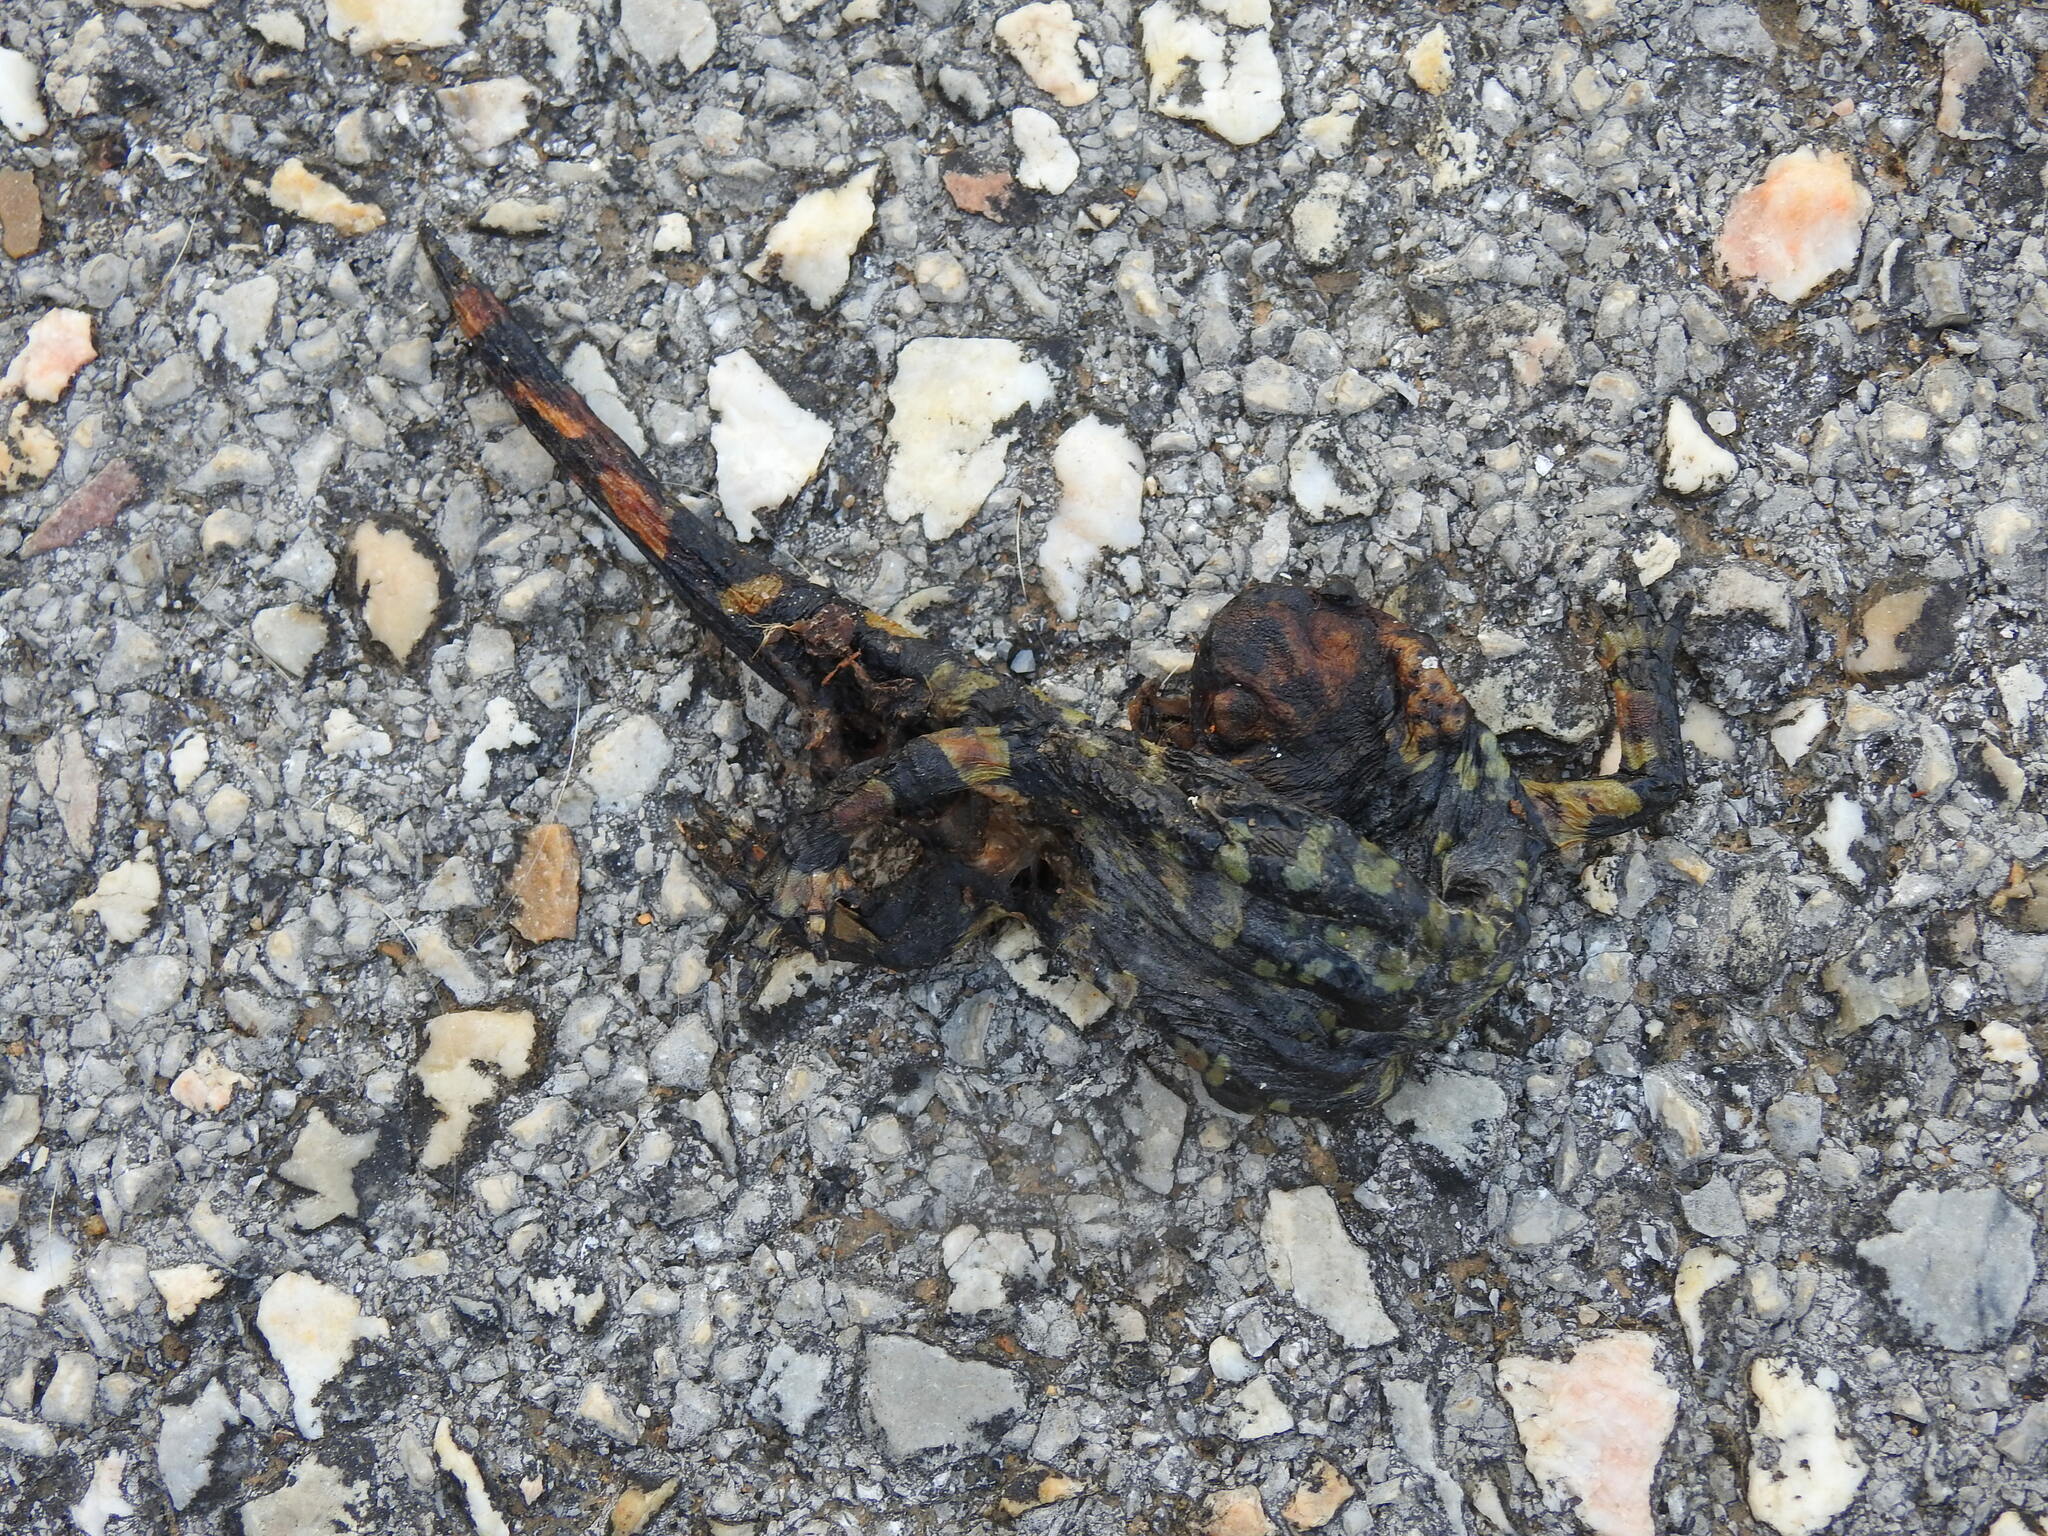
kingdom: Animalia
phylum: Chordata
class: Amphibia
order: Caudata
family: Salamandridae
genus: Salamandra
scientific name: Salamandra salamandra
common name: Fire salamander
